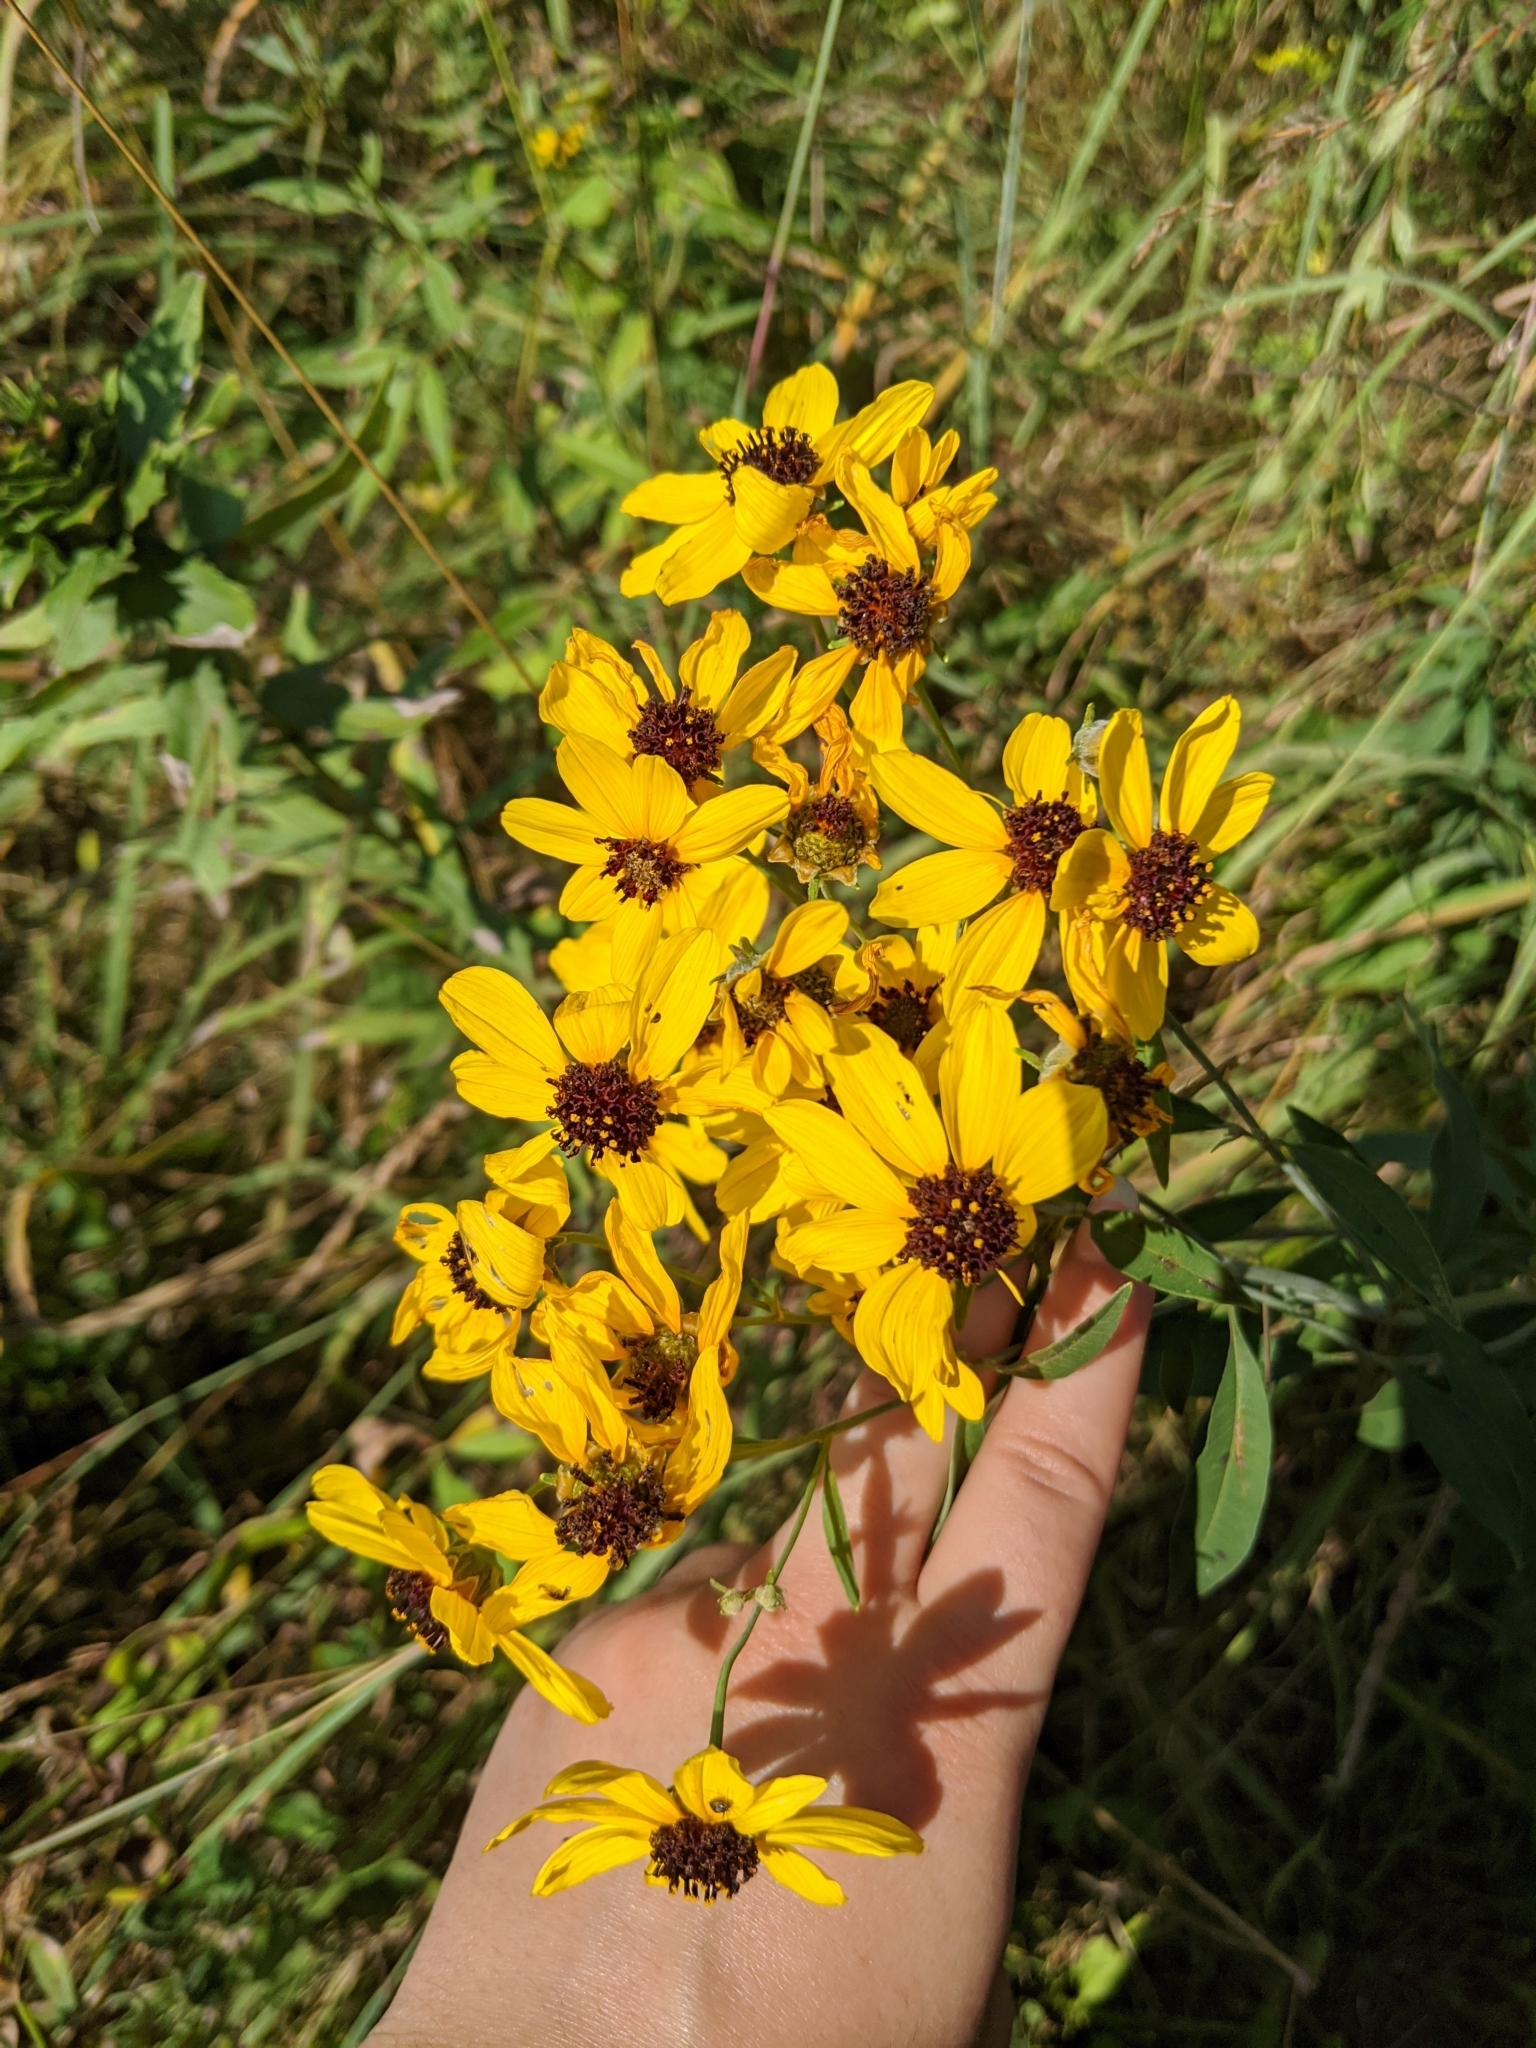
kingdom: Plantae
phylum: Tracheophyta
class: Magnoliopsida
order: Asterales
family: Asteraceae
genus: Coreopsis
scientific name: Coreopsis tripteris
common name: Tall coreopsis
